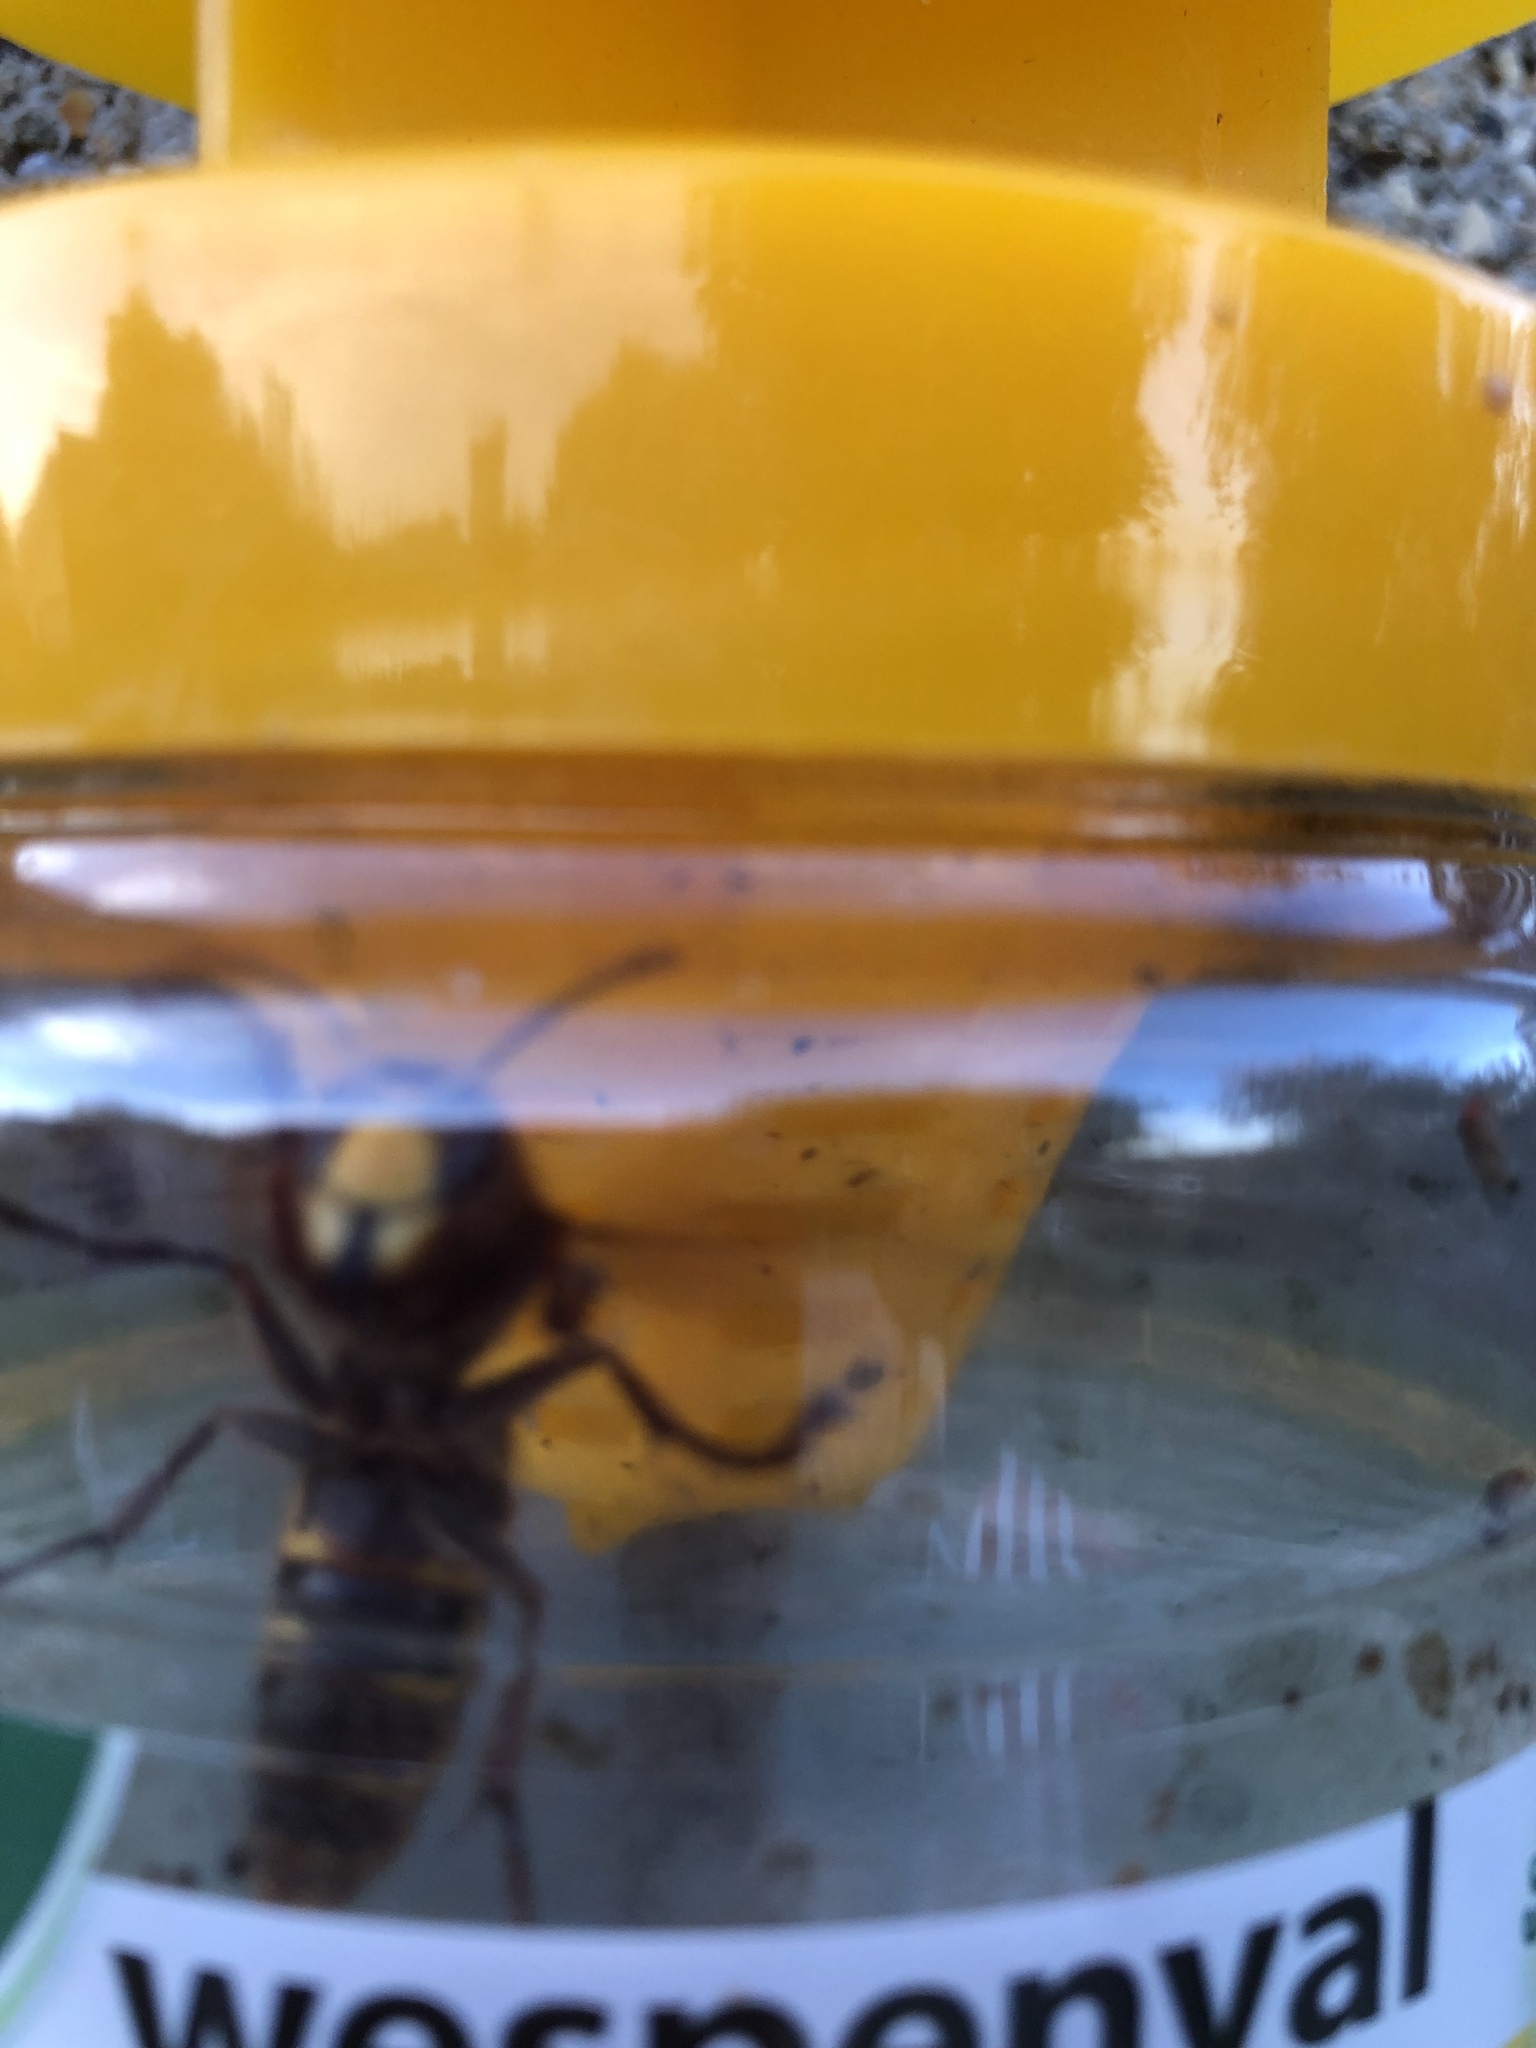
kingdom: Animalia
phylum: Arthropoda
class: Insecta
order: Hymenoptera
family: Vespidae
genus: Vespa
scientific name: Vespa crabro
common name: Hornet
